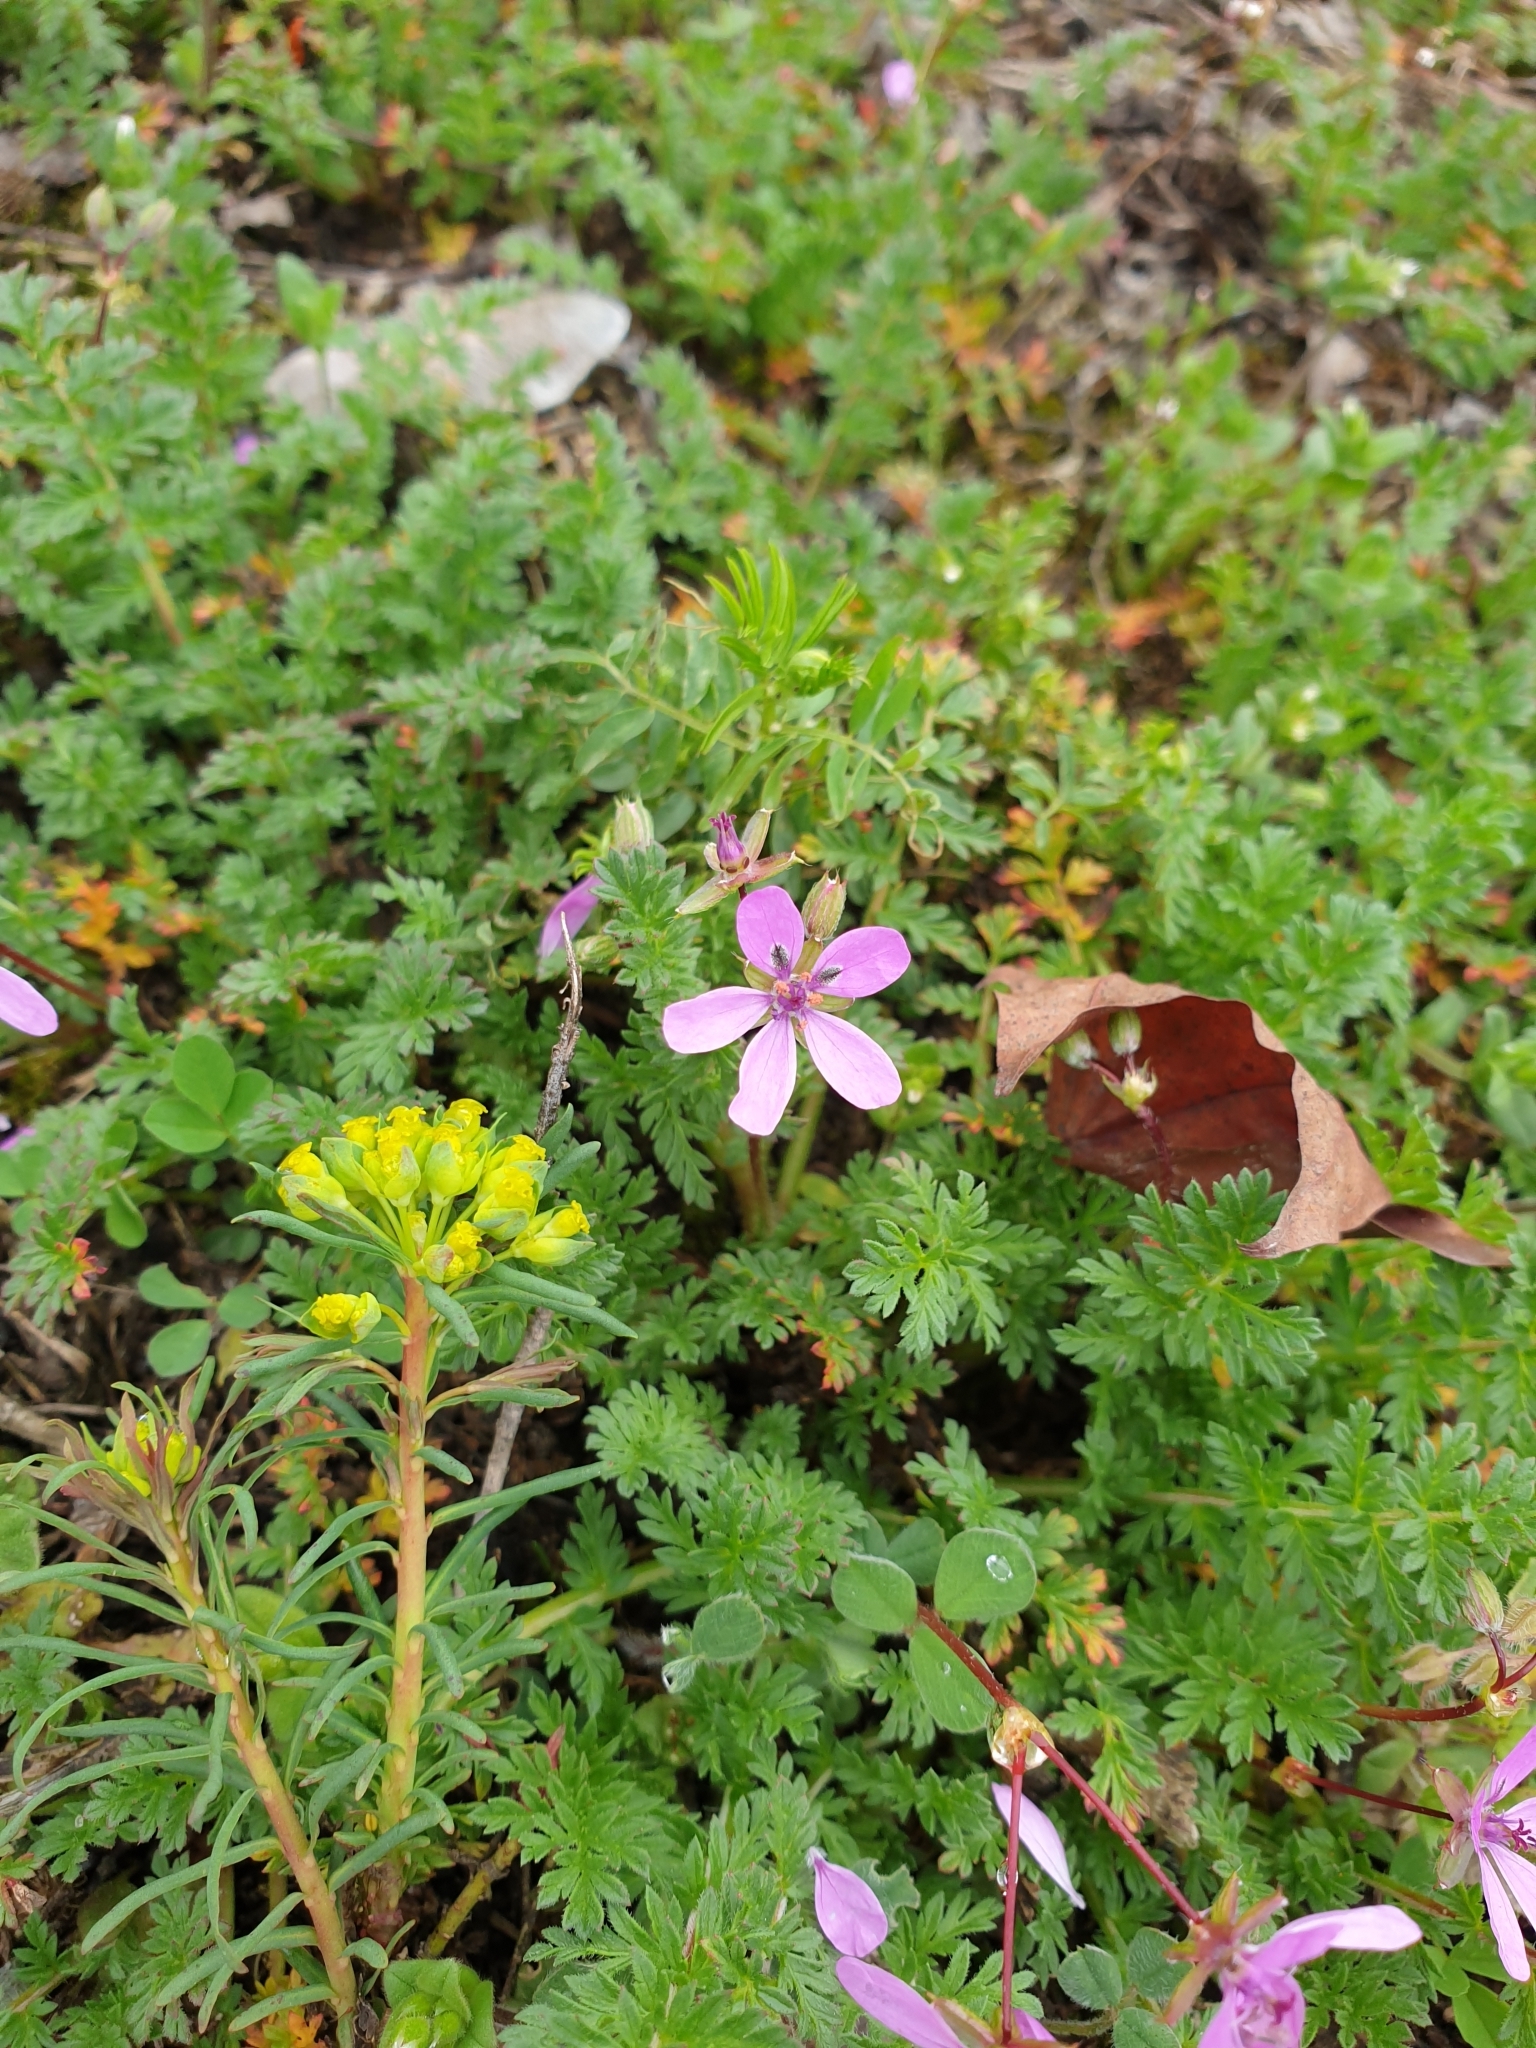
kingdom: Plantae
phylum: Tracheophyta
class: Magnoliopsida
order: Geraniales
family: Geraniaceae
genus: Erodium
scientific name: Erodium cicutarium
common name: Common stork's-bill
